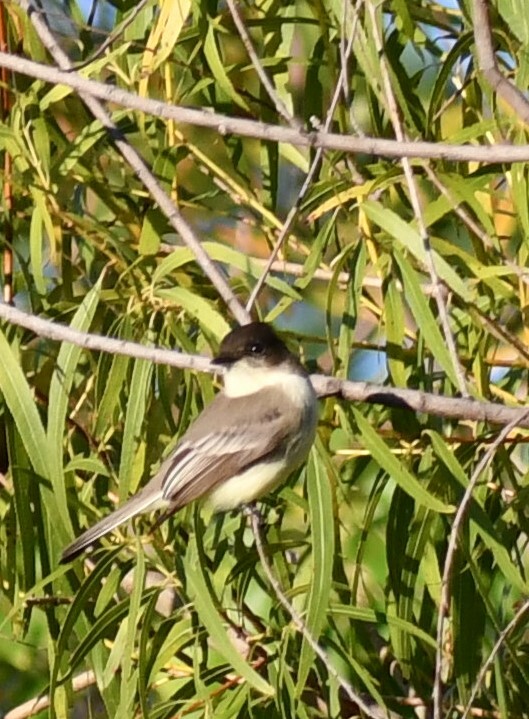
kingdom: Animalia
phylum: Chordata
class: Aves
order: Passeriformes
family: Tyrannidae
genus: Sayornis
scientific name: Sayornis phoebe
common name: Eastern phoebe
